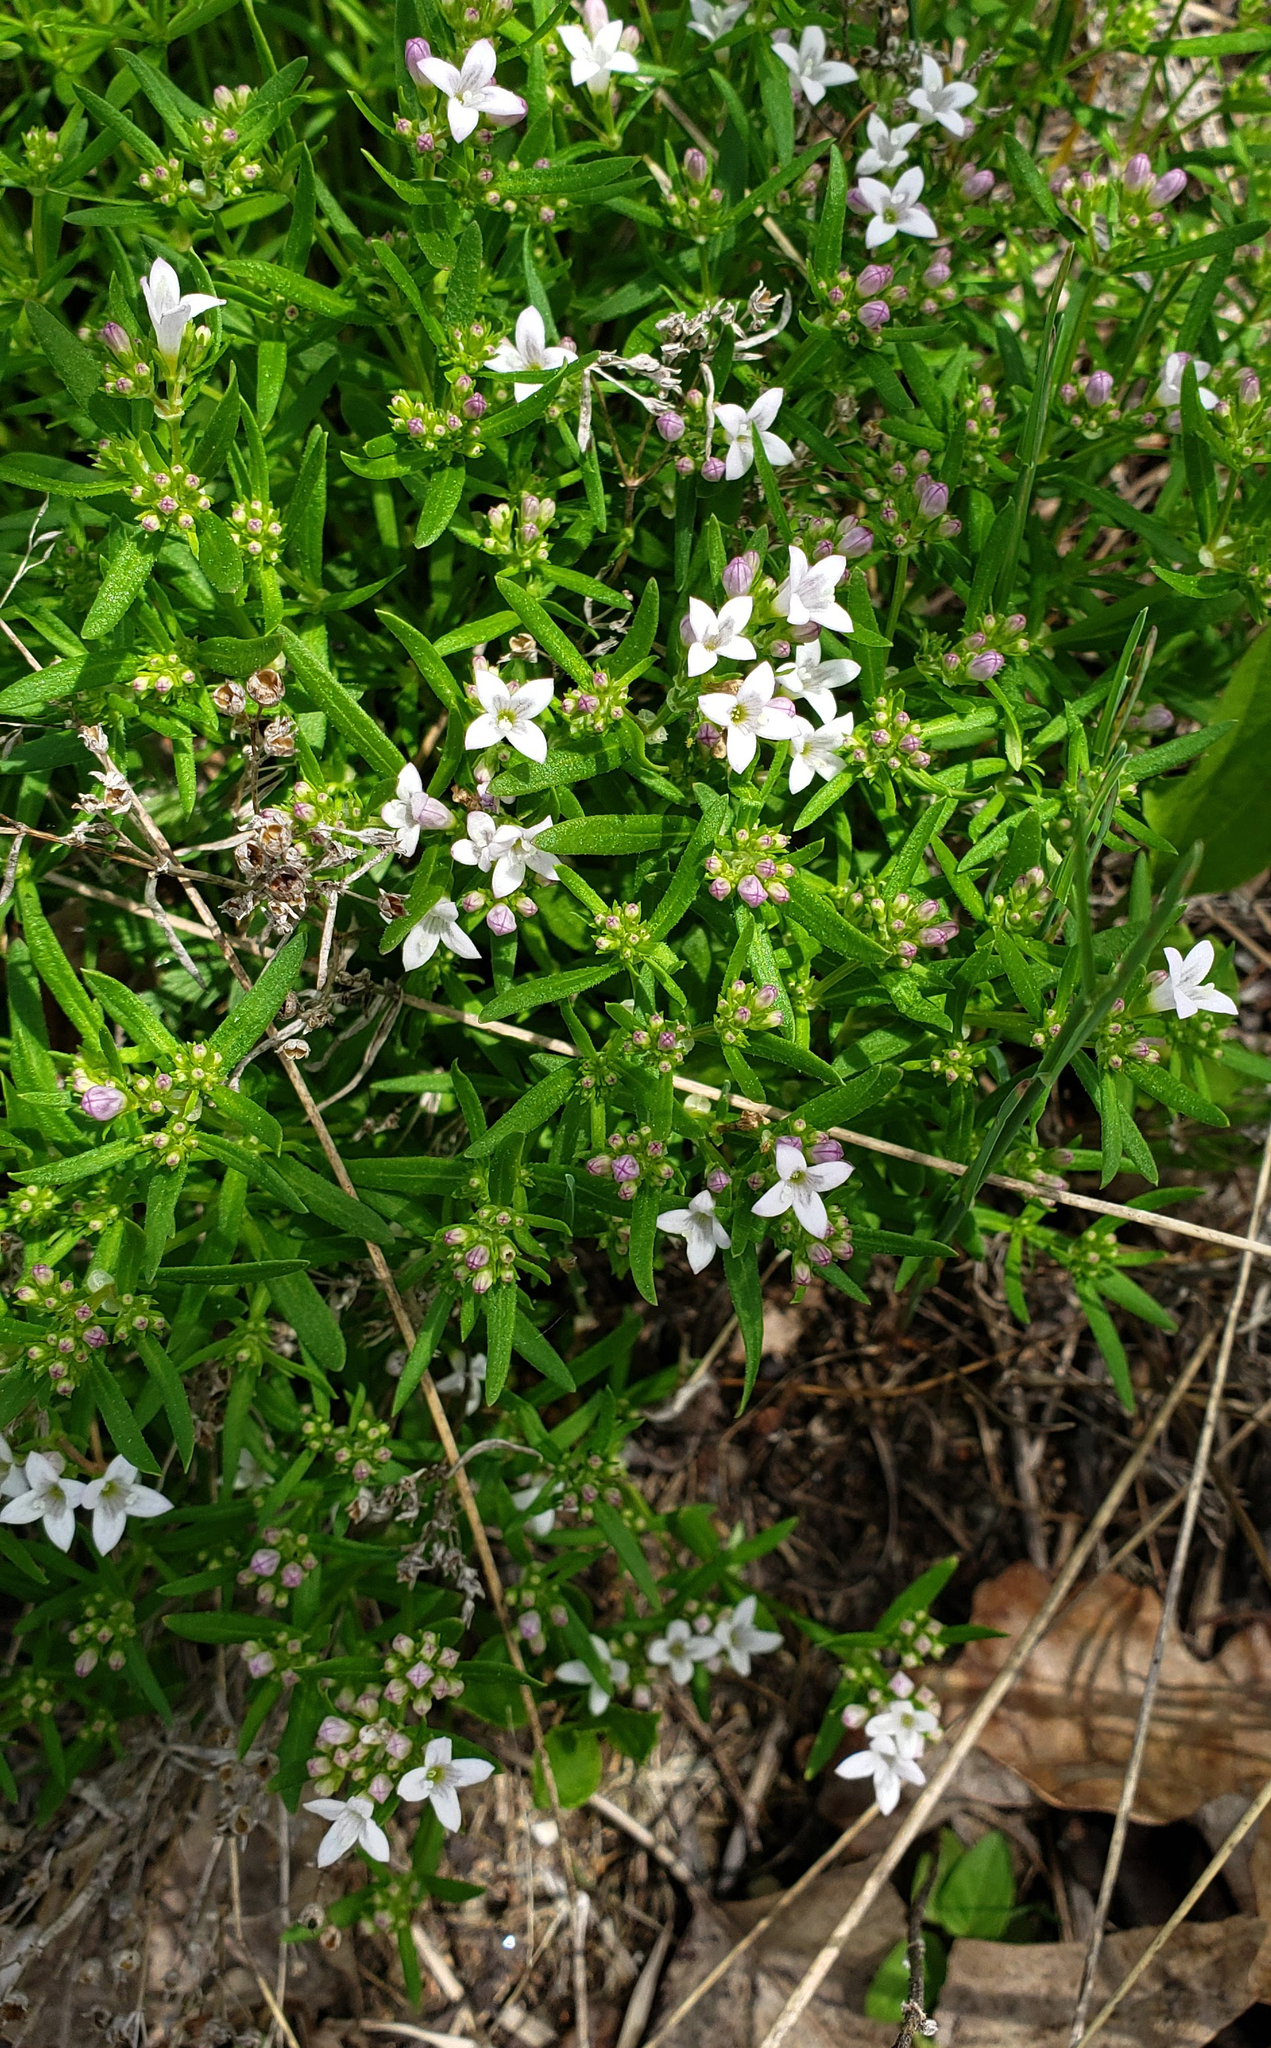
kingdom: Plantae
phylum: Tracheophyta
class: Magnoliopsida
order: Gentianales
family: Rubiaceae
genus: Houstonia
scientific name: Houstonia longifolia
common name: Long-leaved bluets
